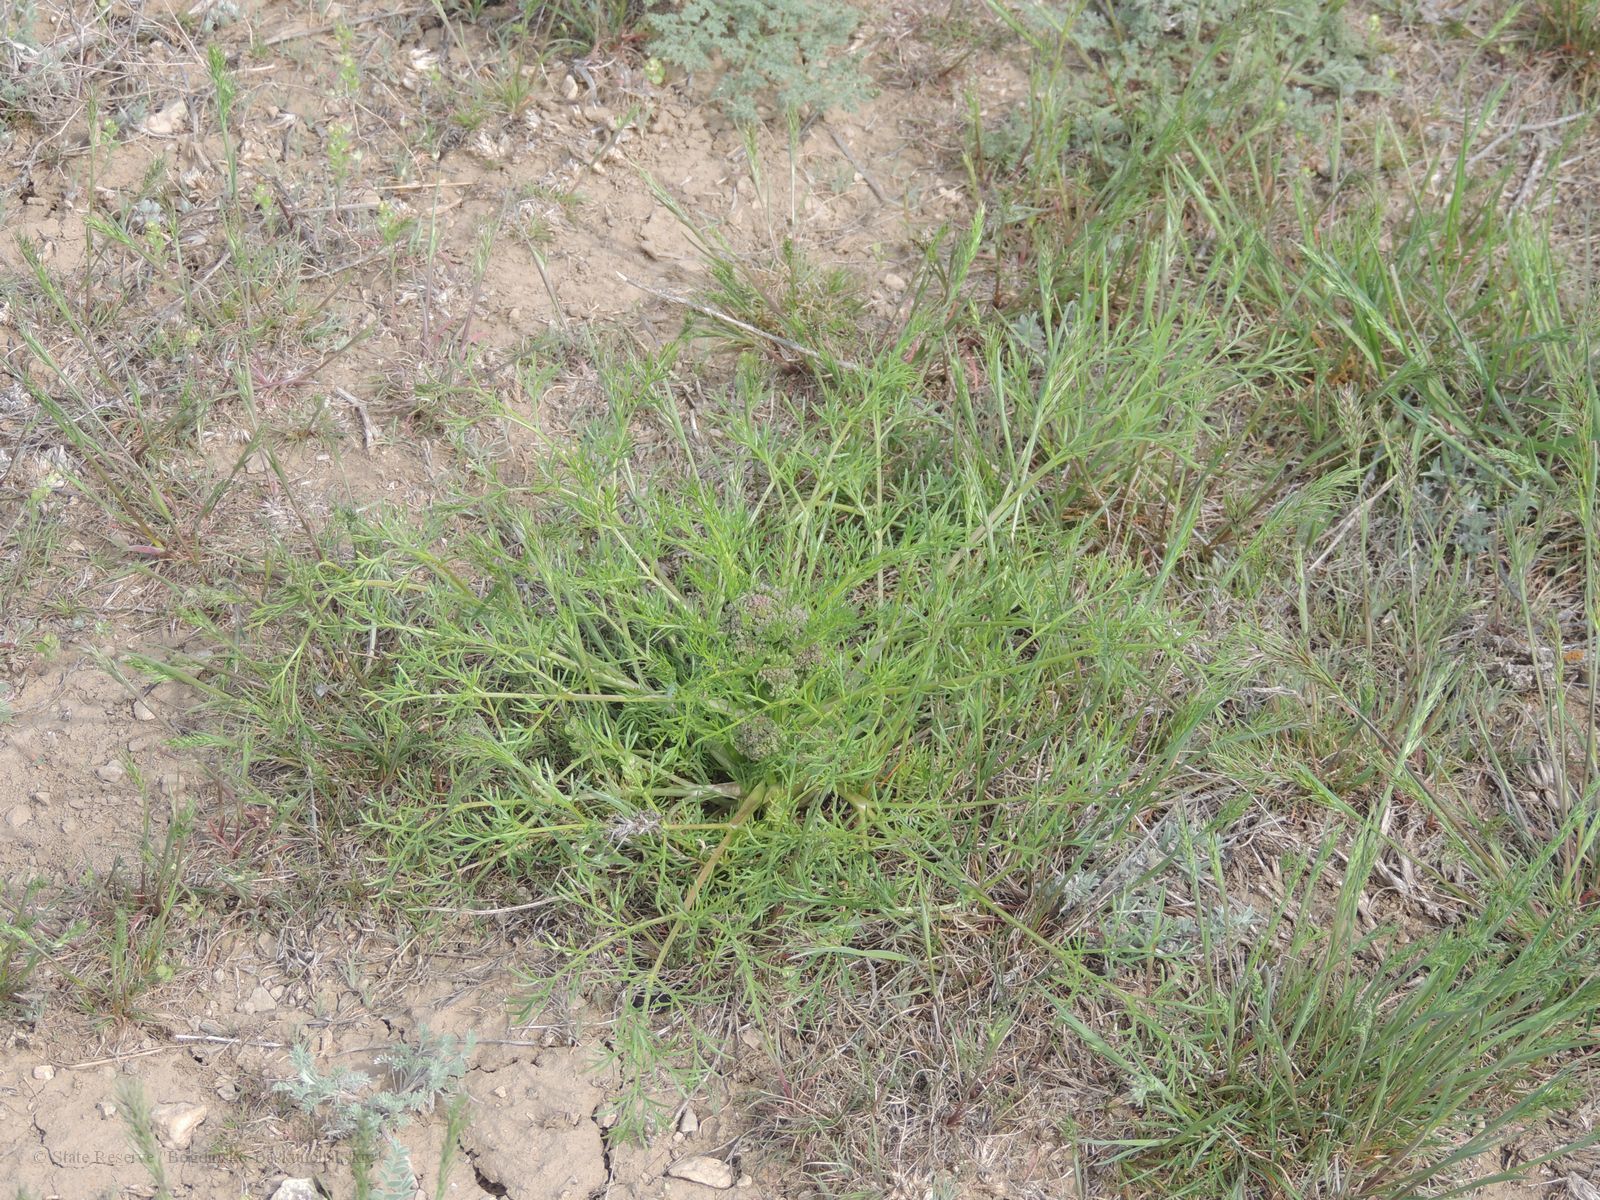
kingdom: Plantae
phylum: Tracheophyta
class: Magnoliopsida
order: Apiales
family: Apiaceae
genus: Trinia
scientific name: Trinia hispida
